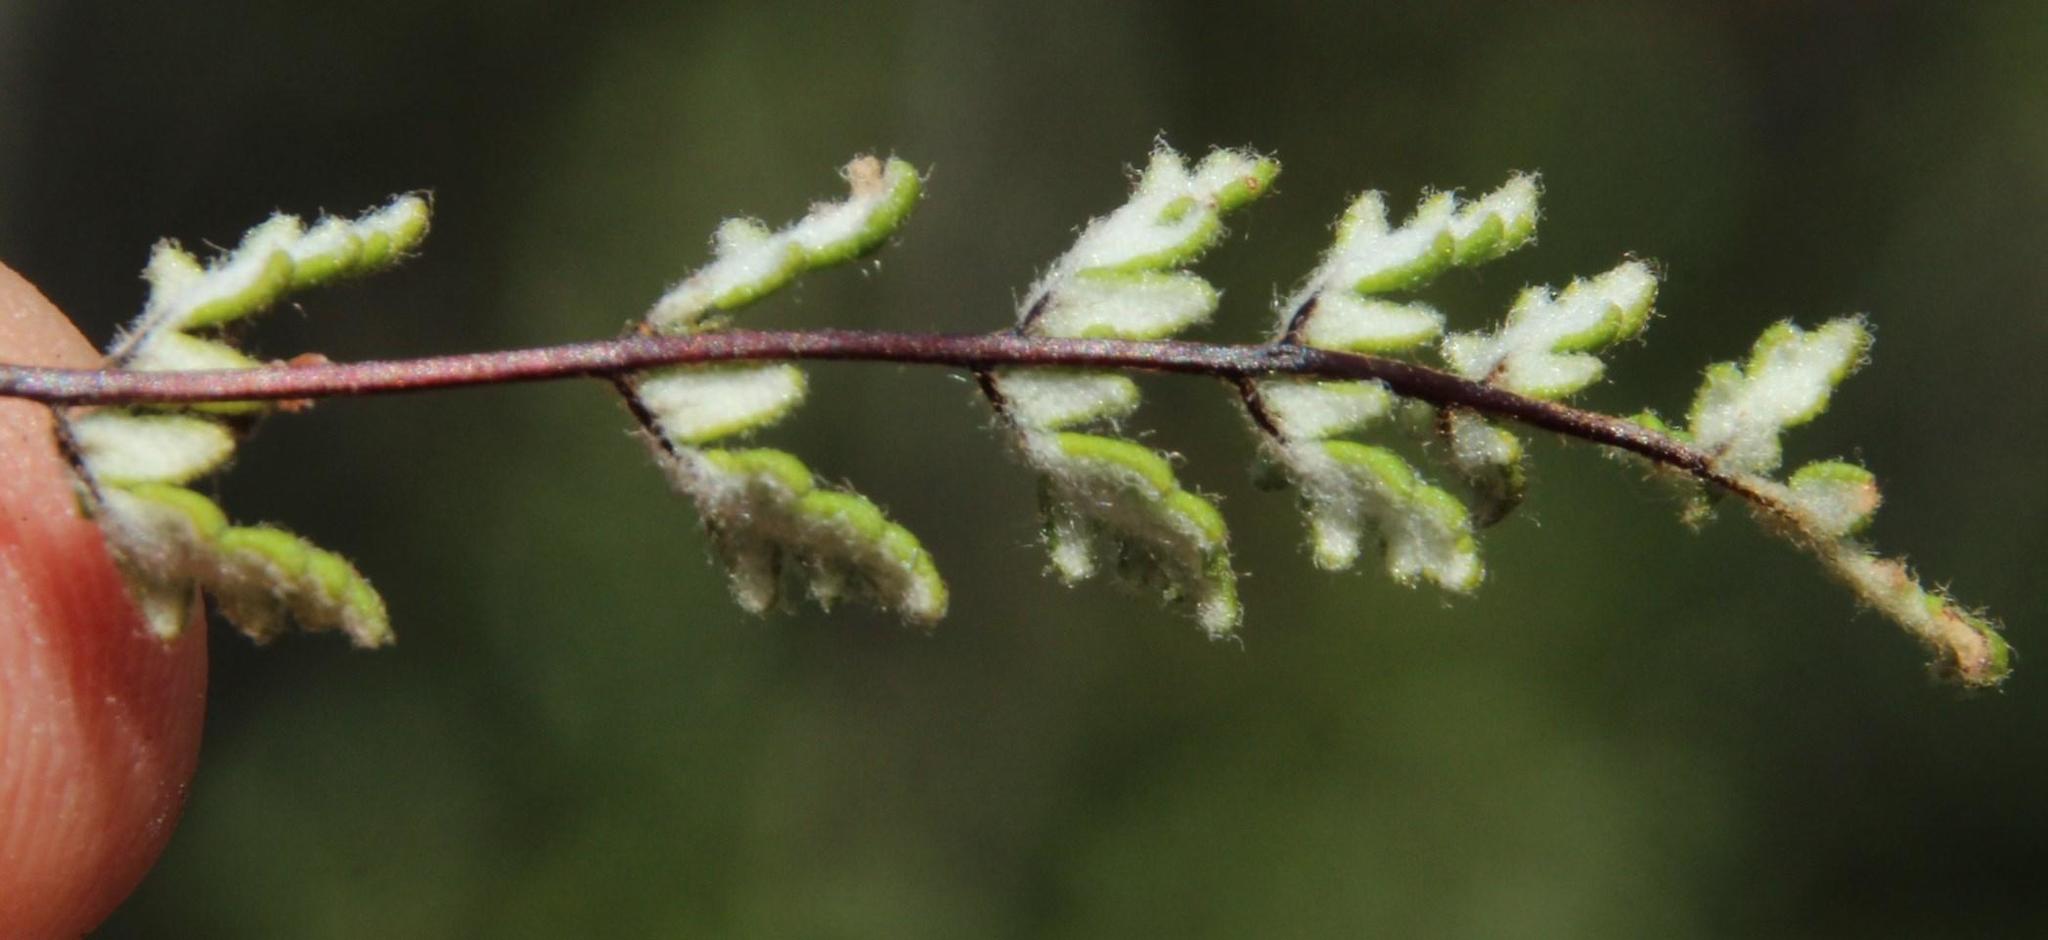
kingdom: Plantae
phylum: Tracheophyta
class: Polypodiopsida
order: Polypodiales
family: Pteridaceae
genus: Cheilanthes
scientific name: Cheilanthes hypoleuca
